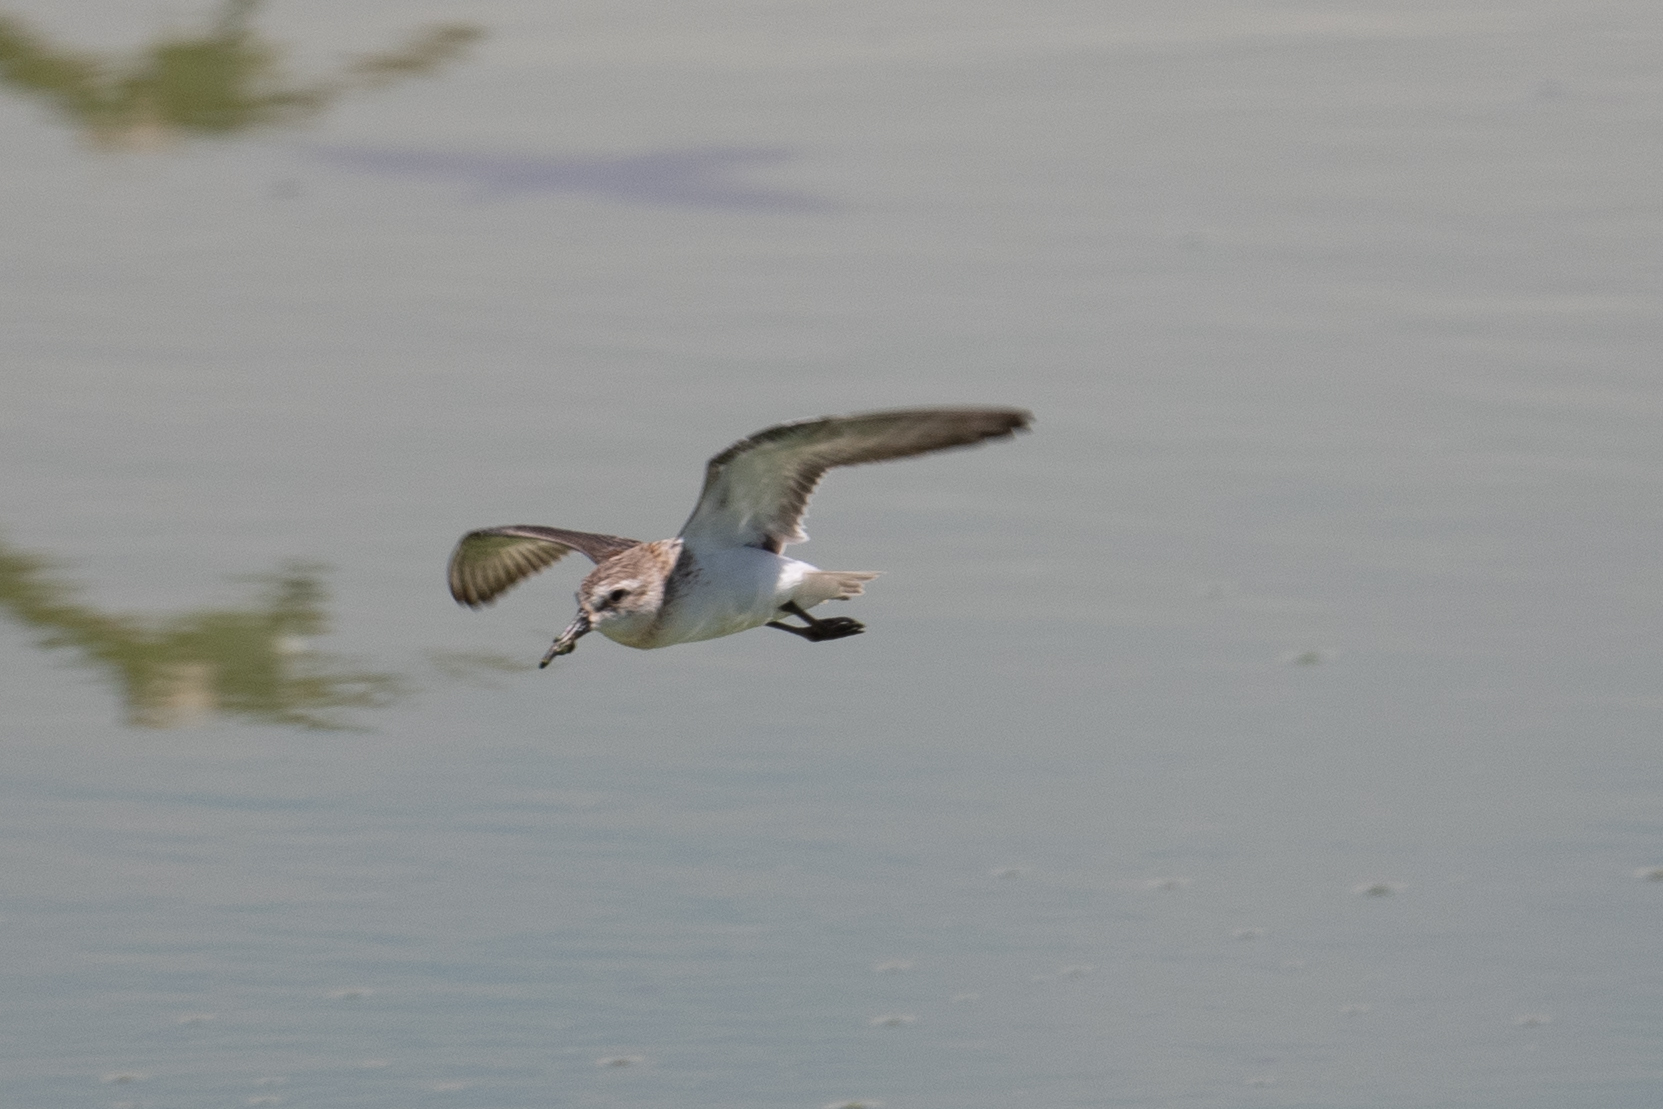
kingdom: Animalia
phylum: Chordata
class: Aves
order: Charadriiformes
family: Scolopacidae
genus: Calidris
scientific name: Calidris mauri
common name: Western sandpiper
